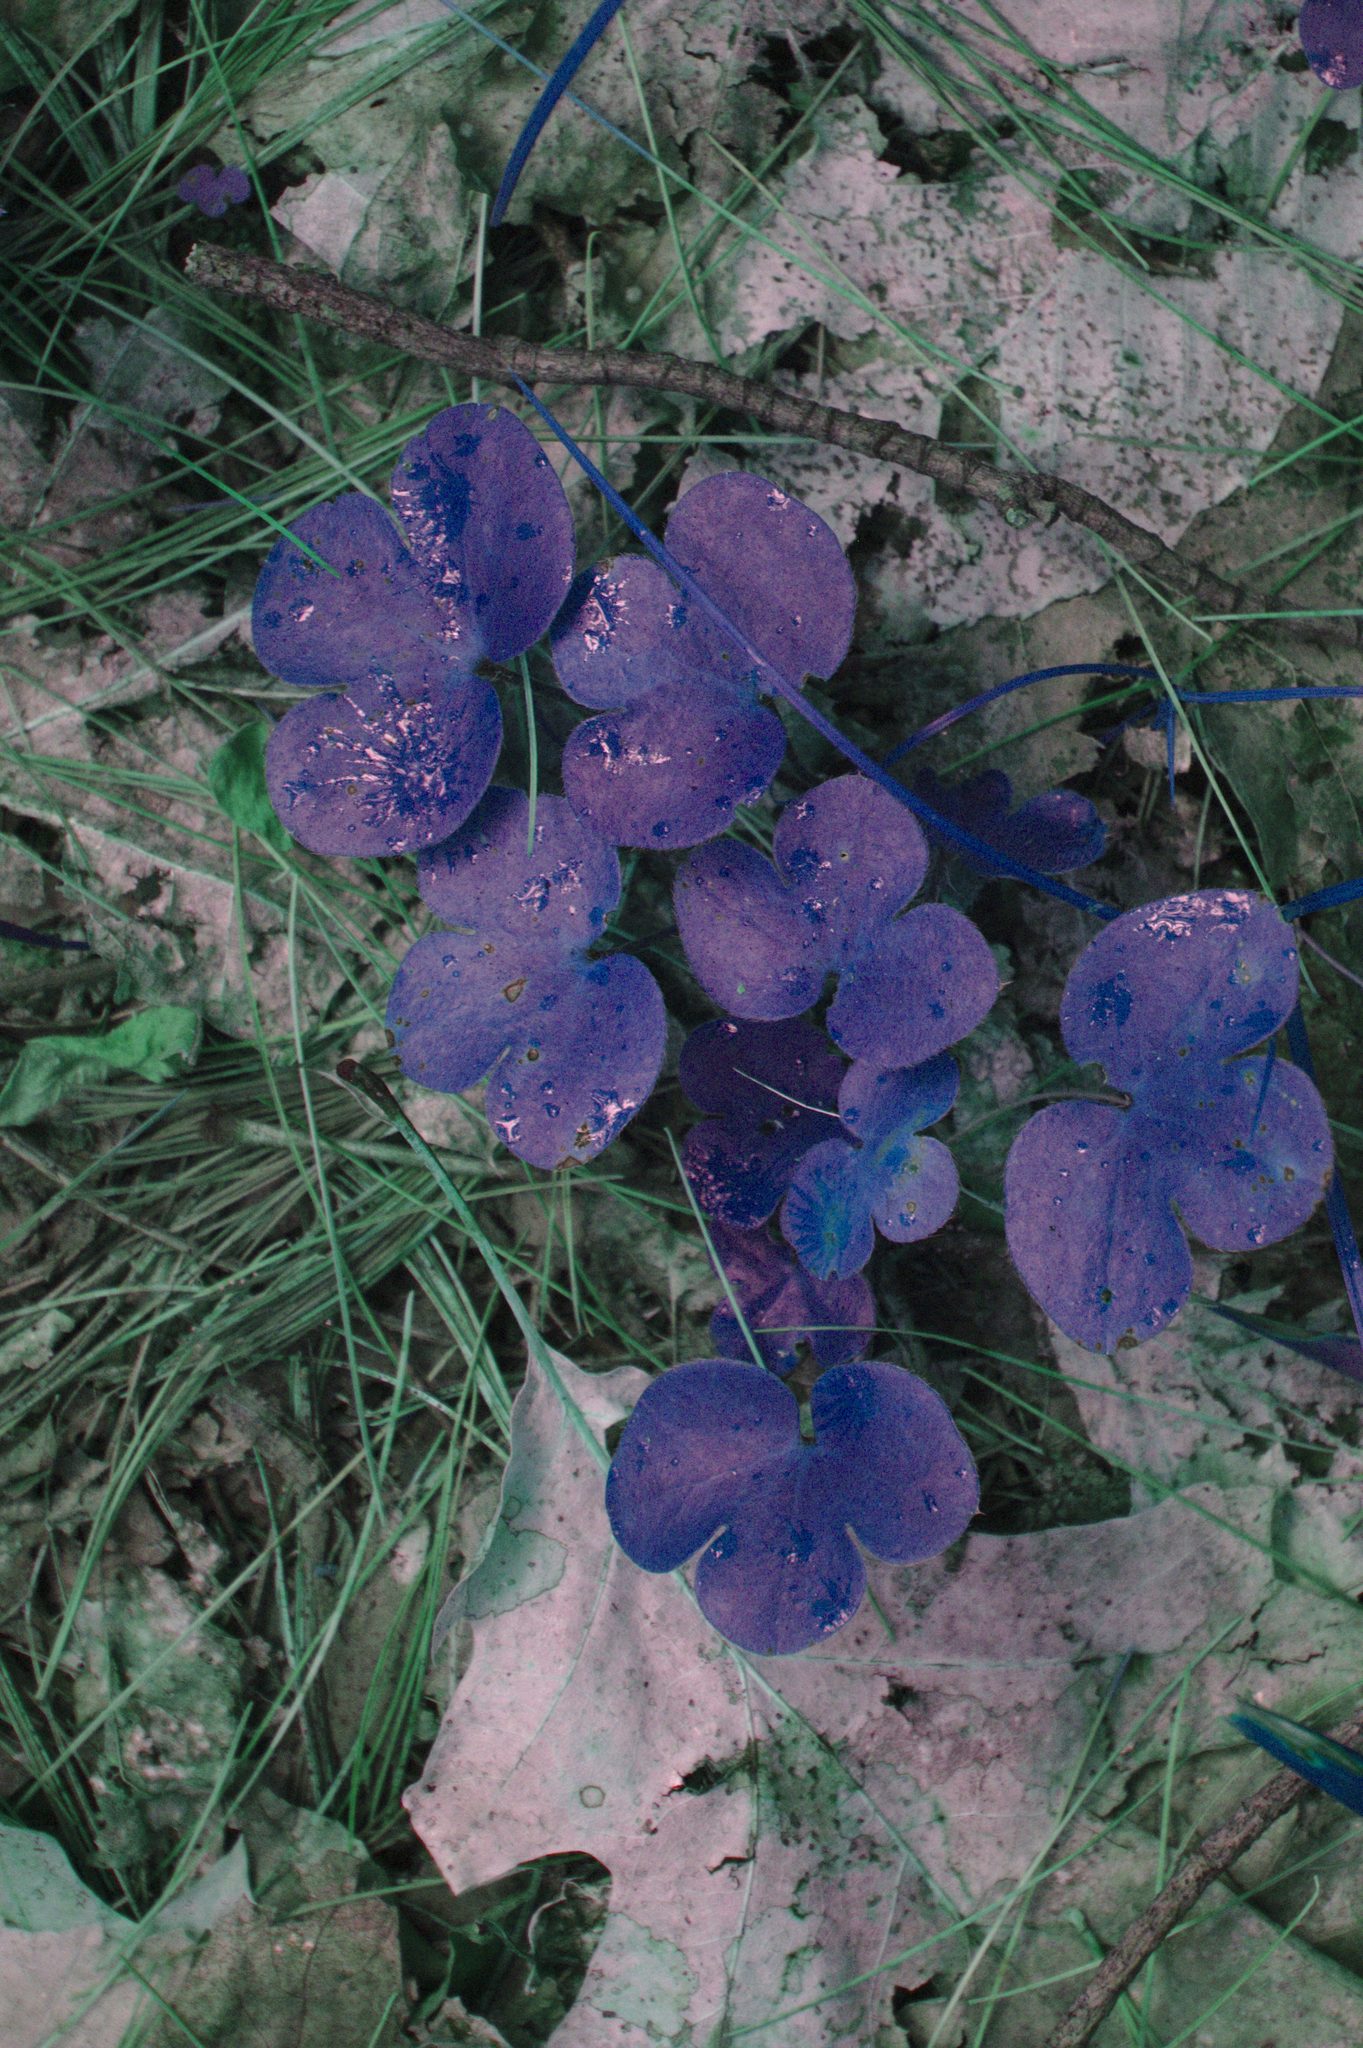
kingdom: Plantae
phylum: Tracheophyta
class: Magnoliopsida
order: Ranunculales
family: Ranunculaceae
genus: Hepatica
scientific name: Hepatica americana
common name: American hepatica
